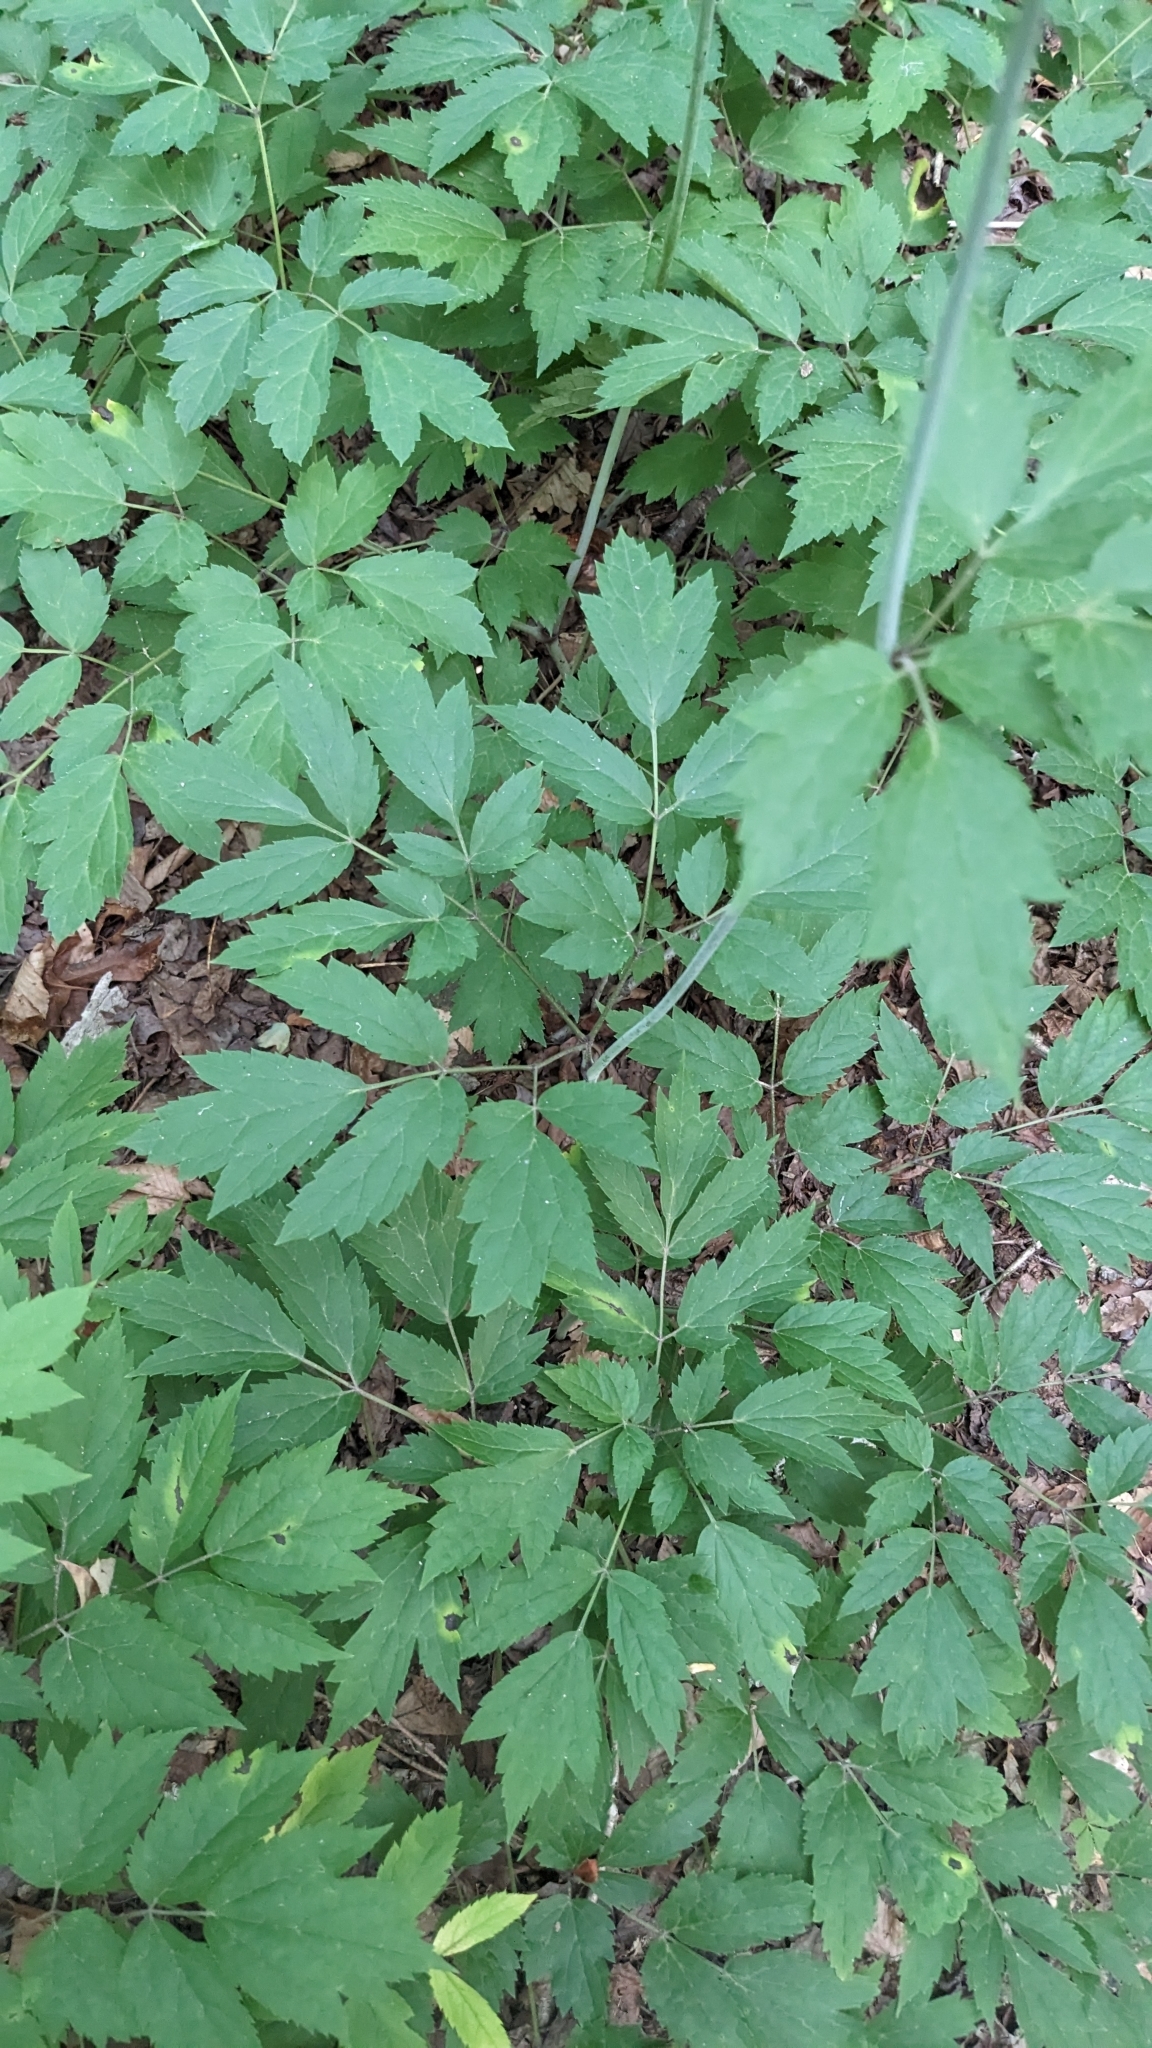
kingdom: Plantae
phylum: Tracheophyta
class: Magnoliopsida
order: Ranunculales
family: Ranunculaceae
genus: Actaea
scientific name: Actaea racemosa
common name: Black cohosh
